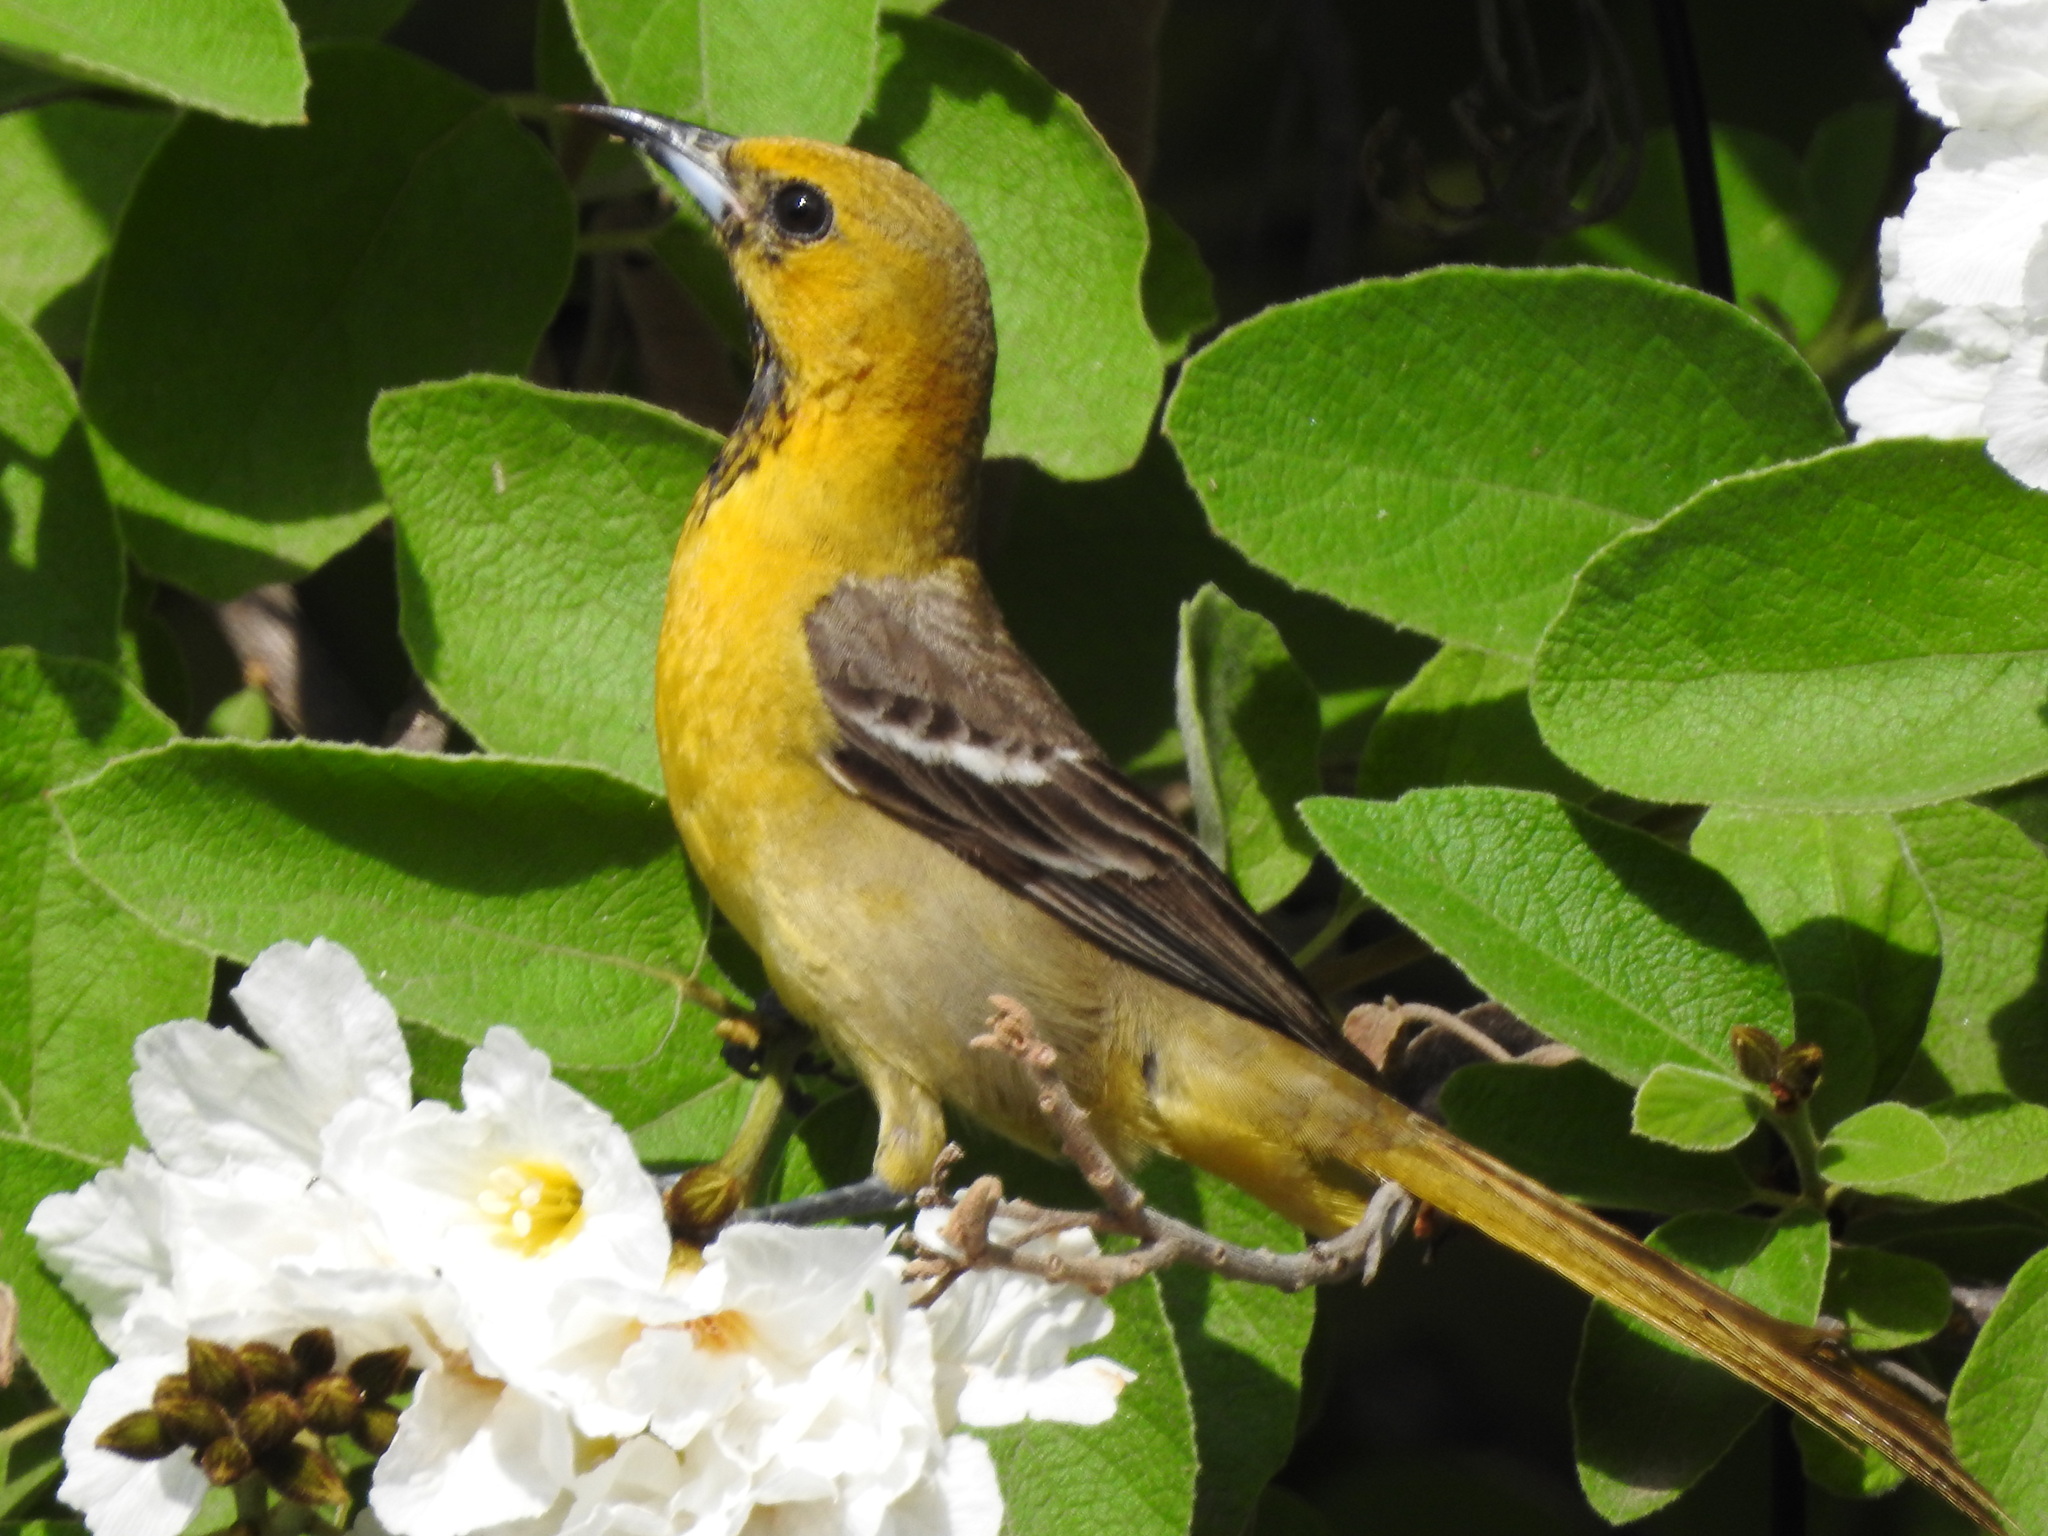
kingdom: Animalia
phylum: Chordata
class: Aves
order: Passeriformes
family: Icteridae
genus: Icterus
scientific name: Icterus cucullatus
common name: Hooded oriole
